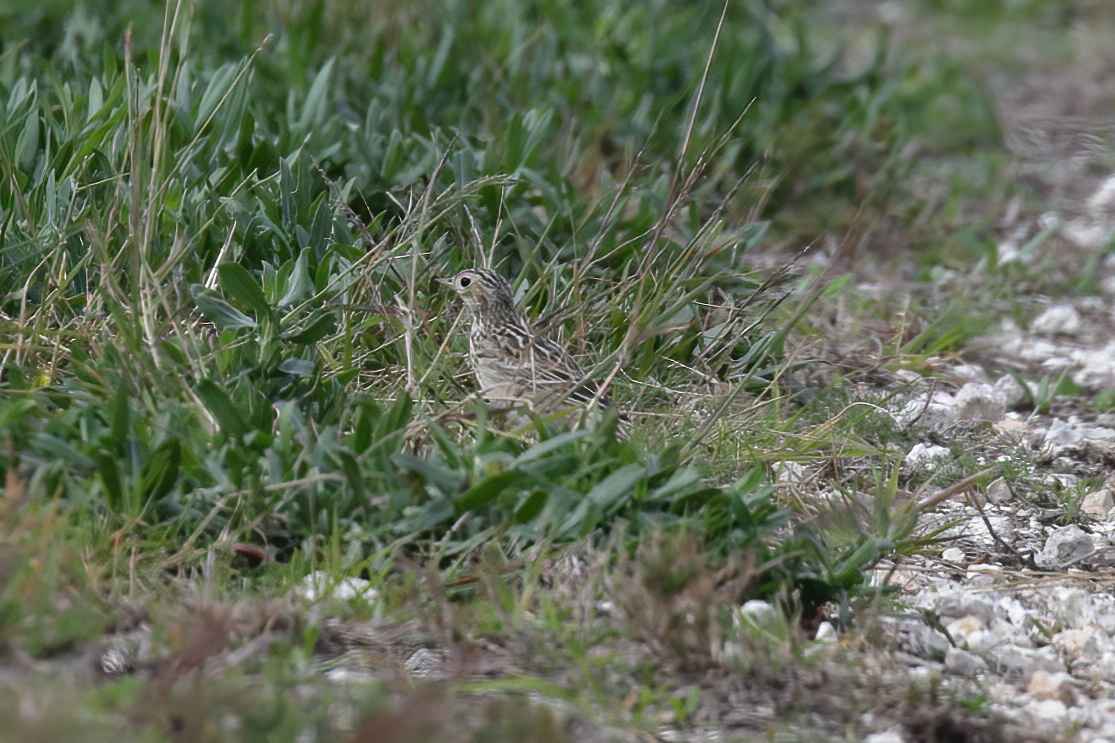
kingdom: Animalia
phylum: Chordata
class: Aves
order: Passeriformes
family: Motacillidae
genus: Anthus
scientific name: Anthus spragueii
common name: Sprague's pipit
